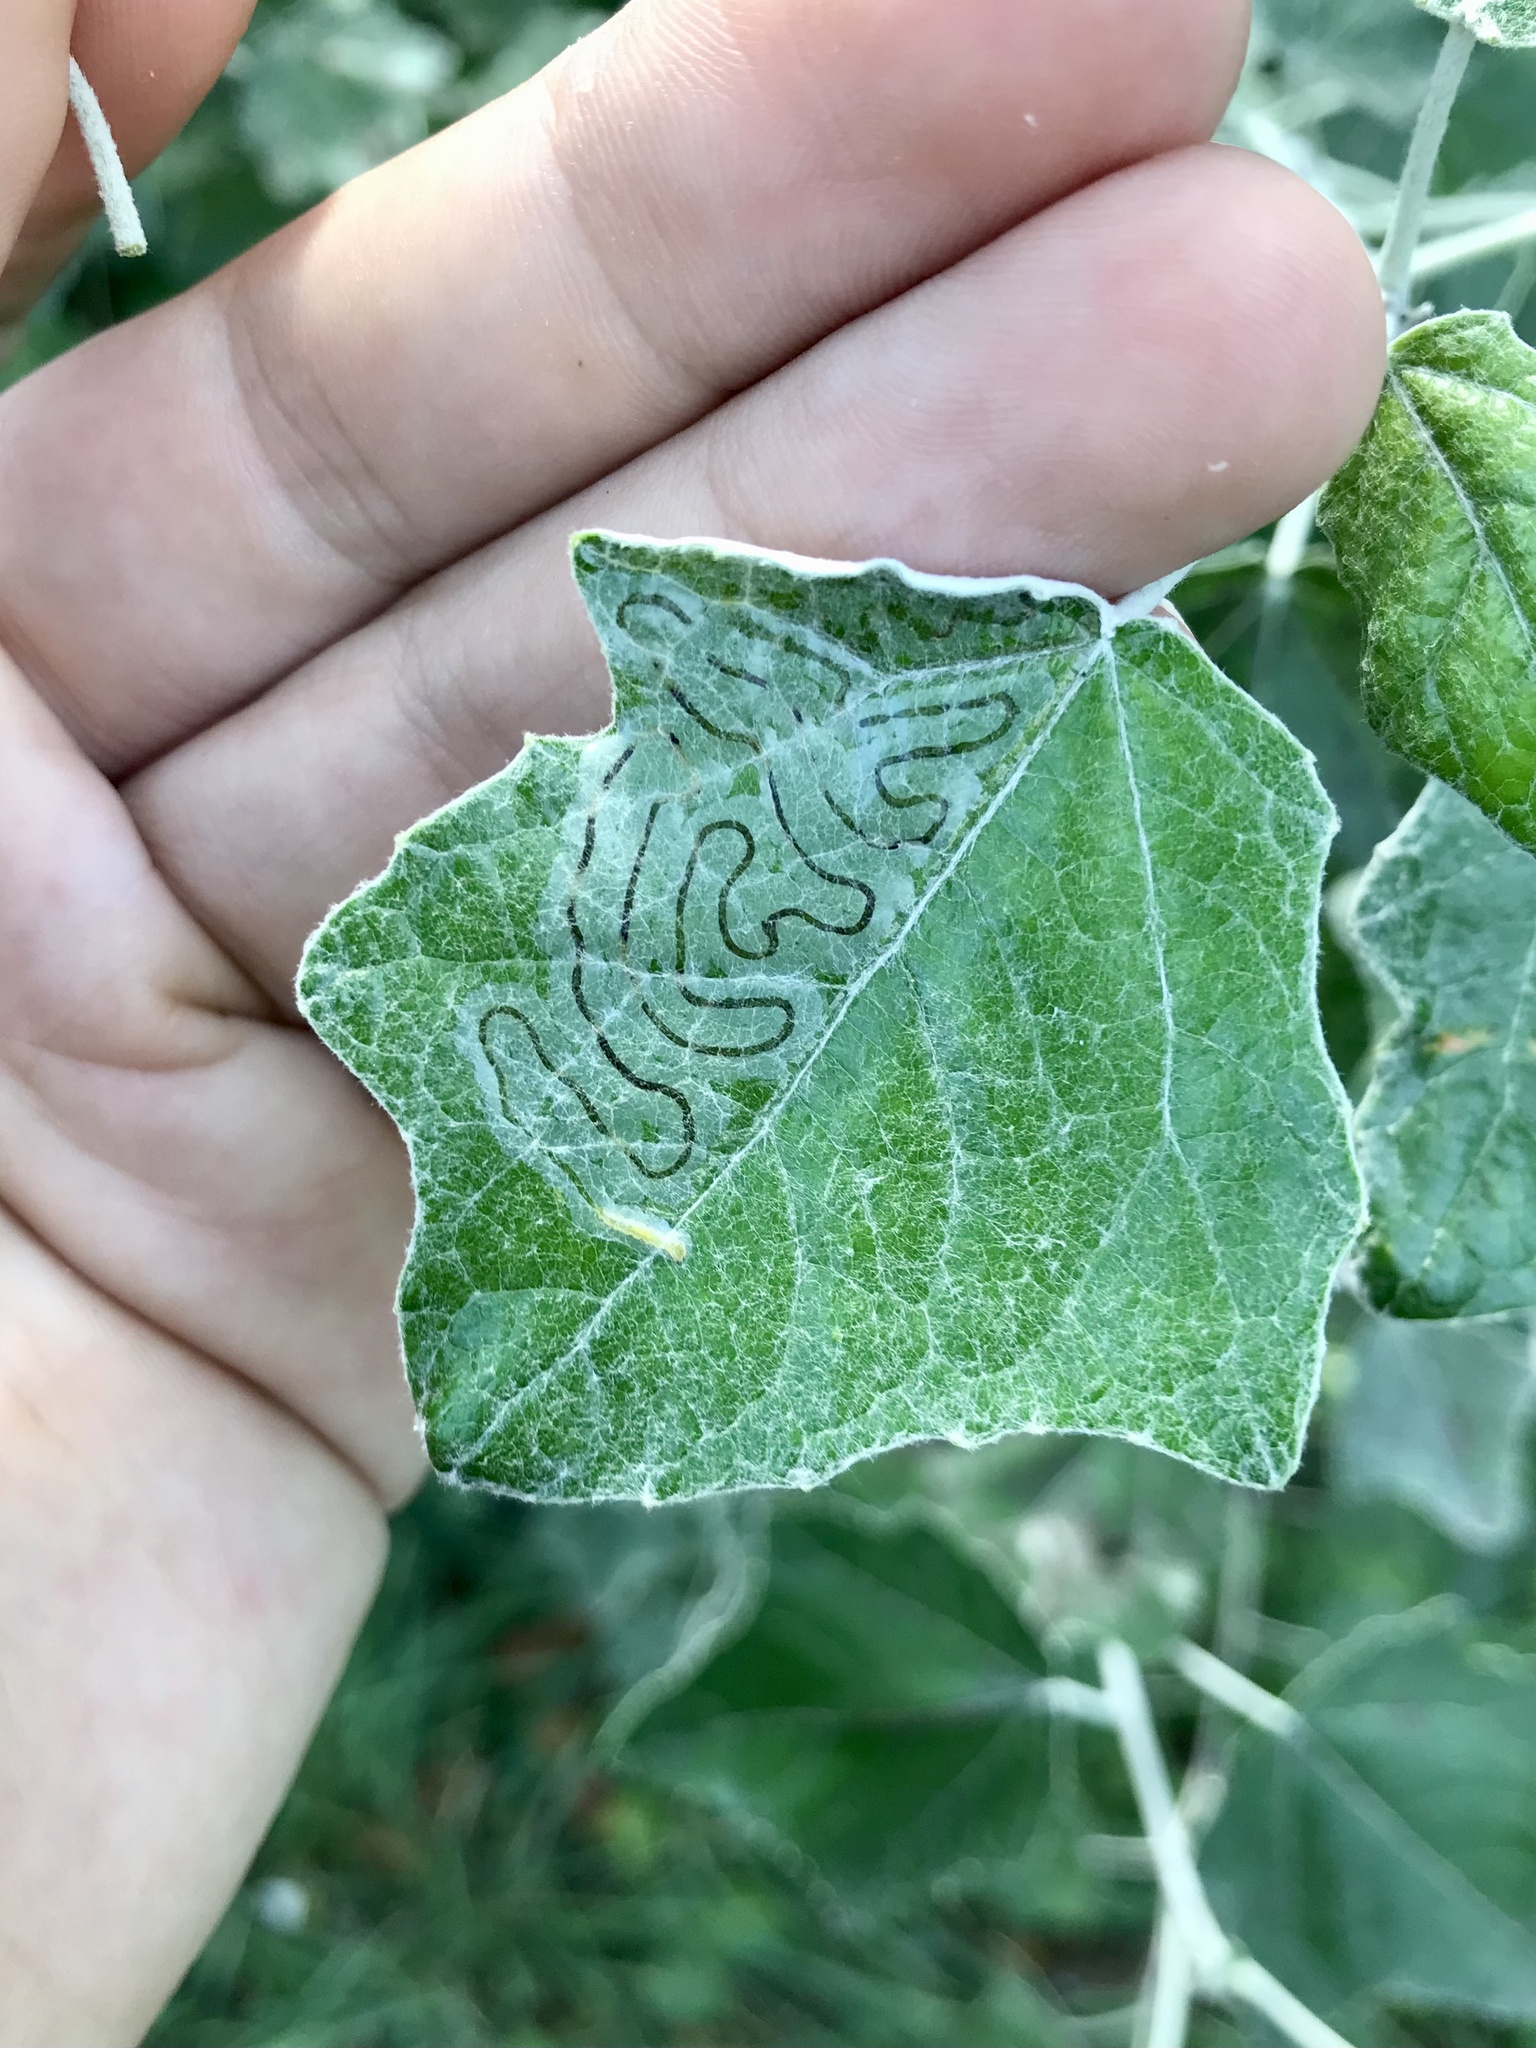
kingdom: Animalia
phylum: Arthropoda
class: Insecta
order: Lepidoptera
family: Gracillariidae
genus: Phyllocnistis
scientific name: Phyllocnistis populiella
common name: Aspen serpentine leafminer moth
